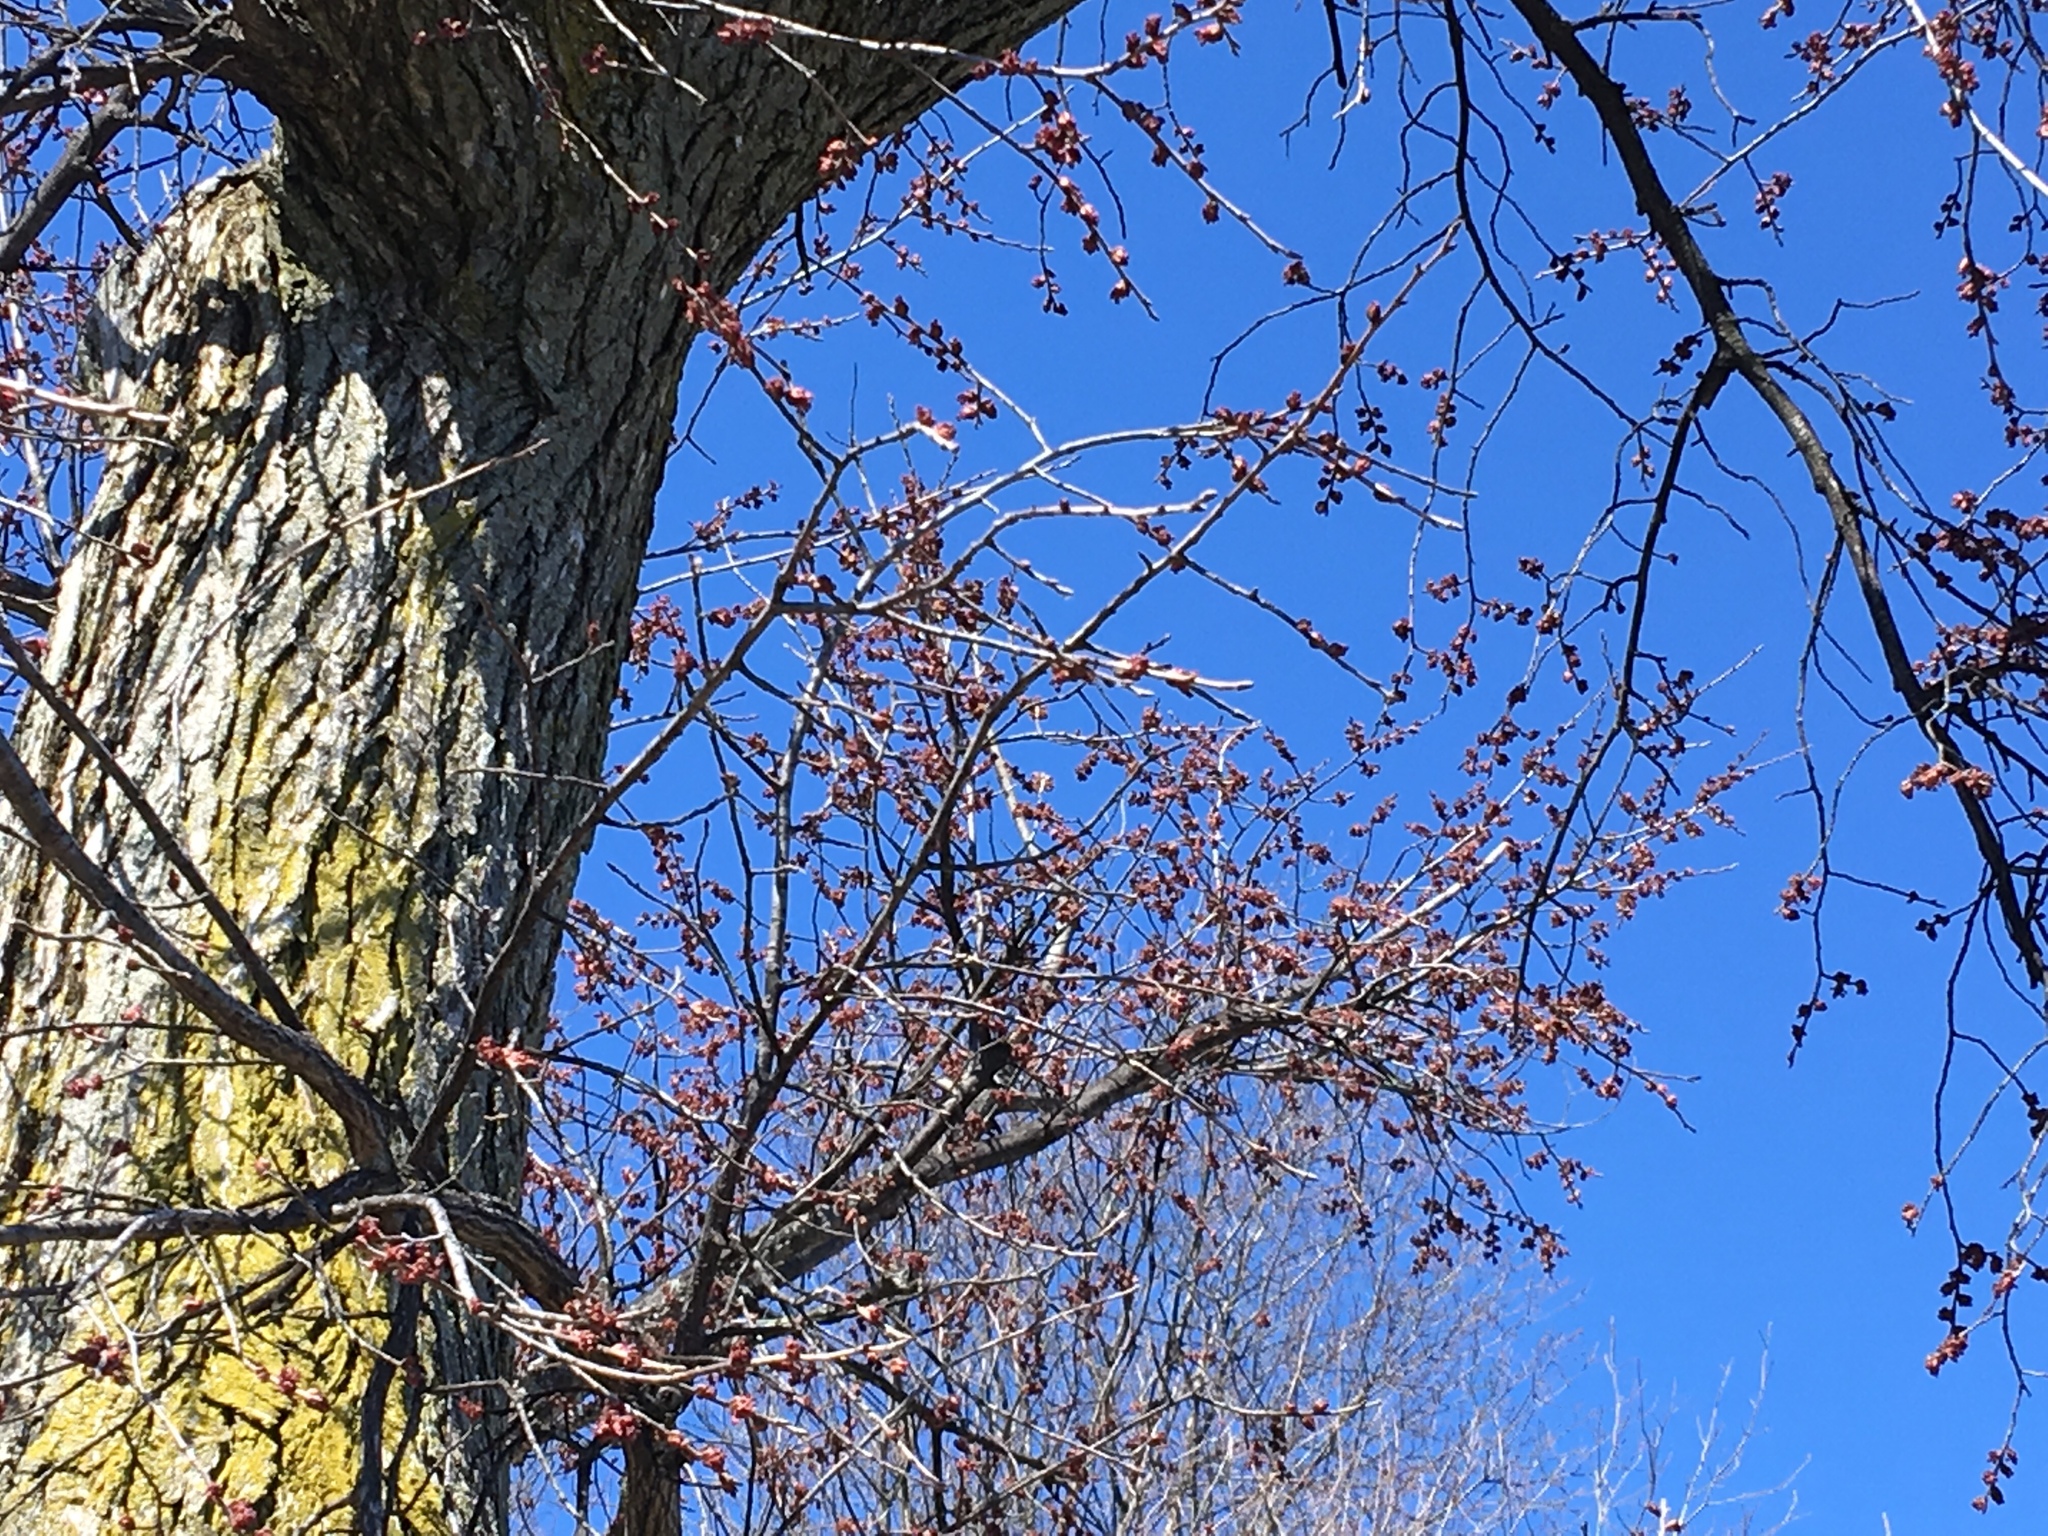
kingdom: Plantae
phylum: Tracheophyta
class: Magnoliopsida
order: Rosales
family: Ulmaceae
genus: Ulmus
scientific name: Ulmus americana
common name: American elm
